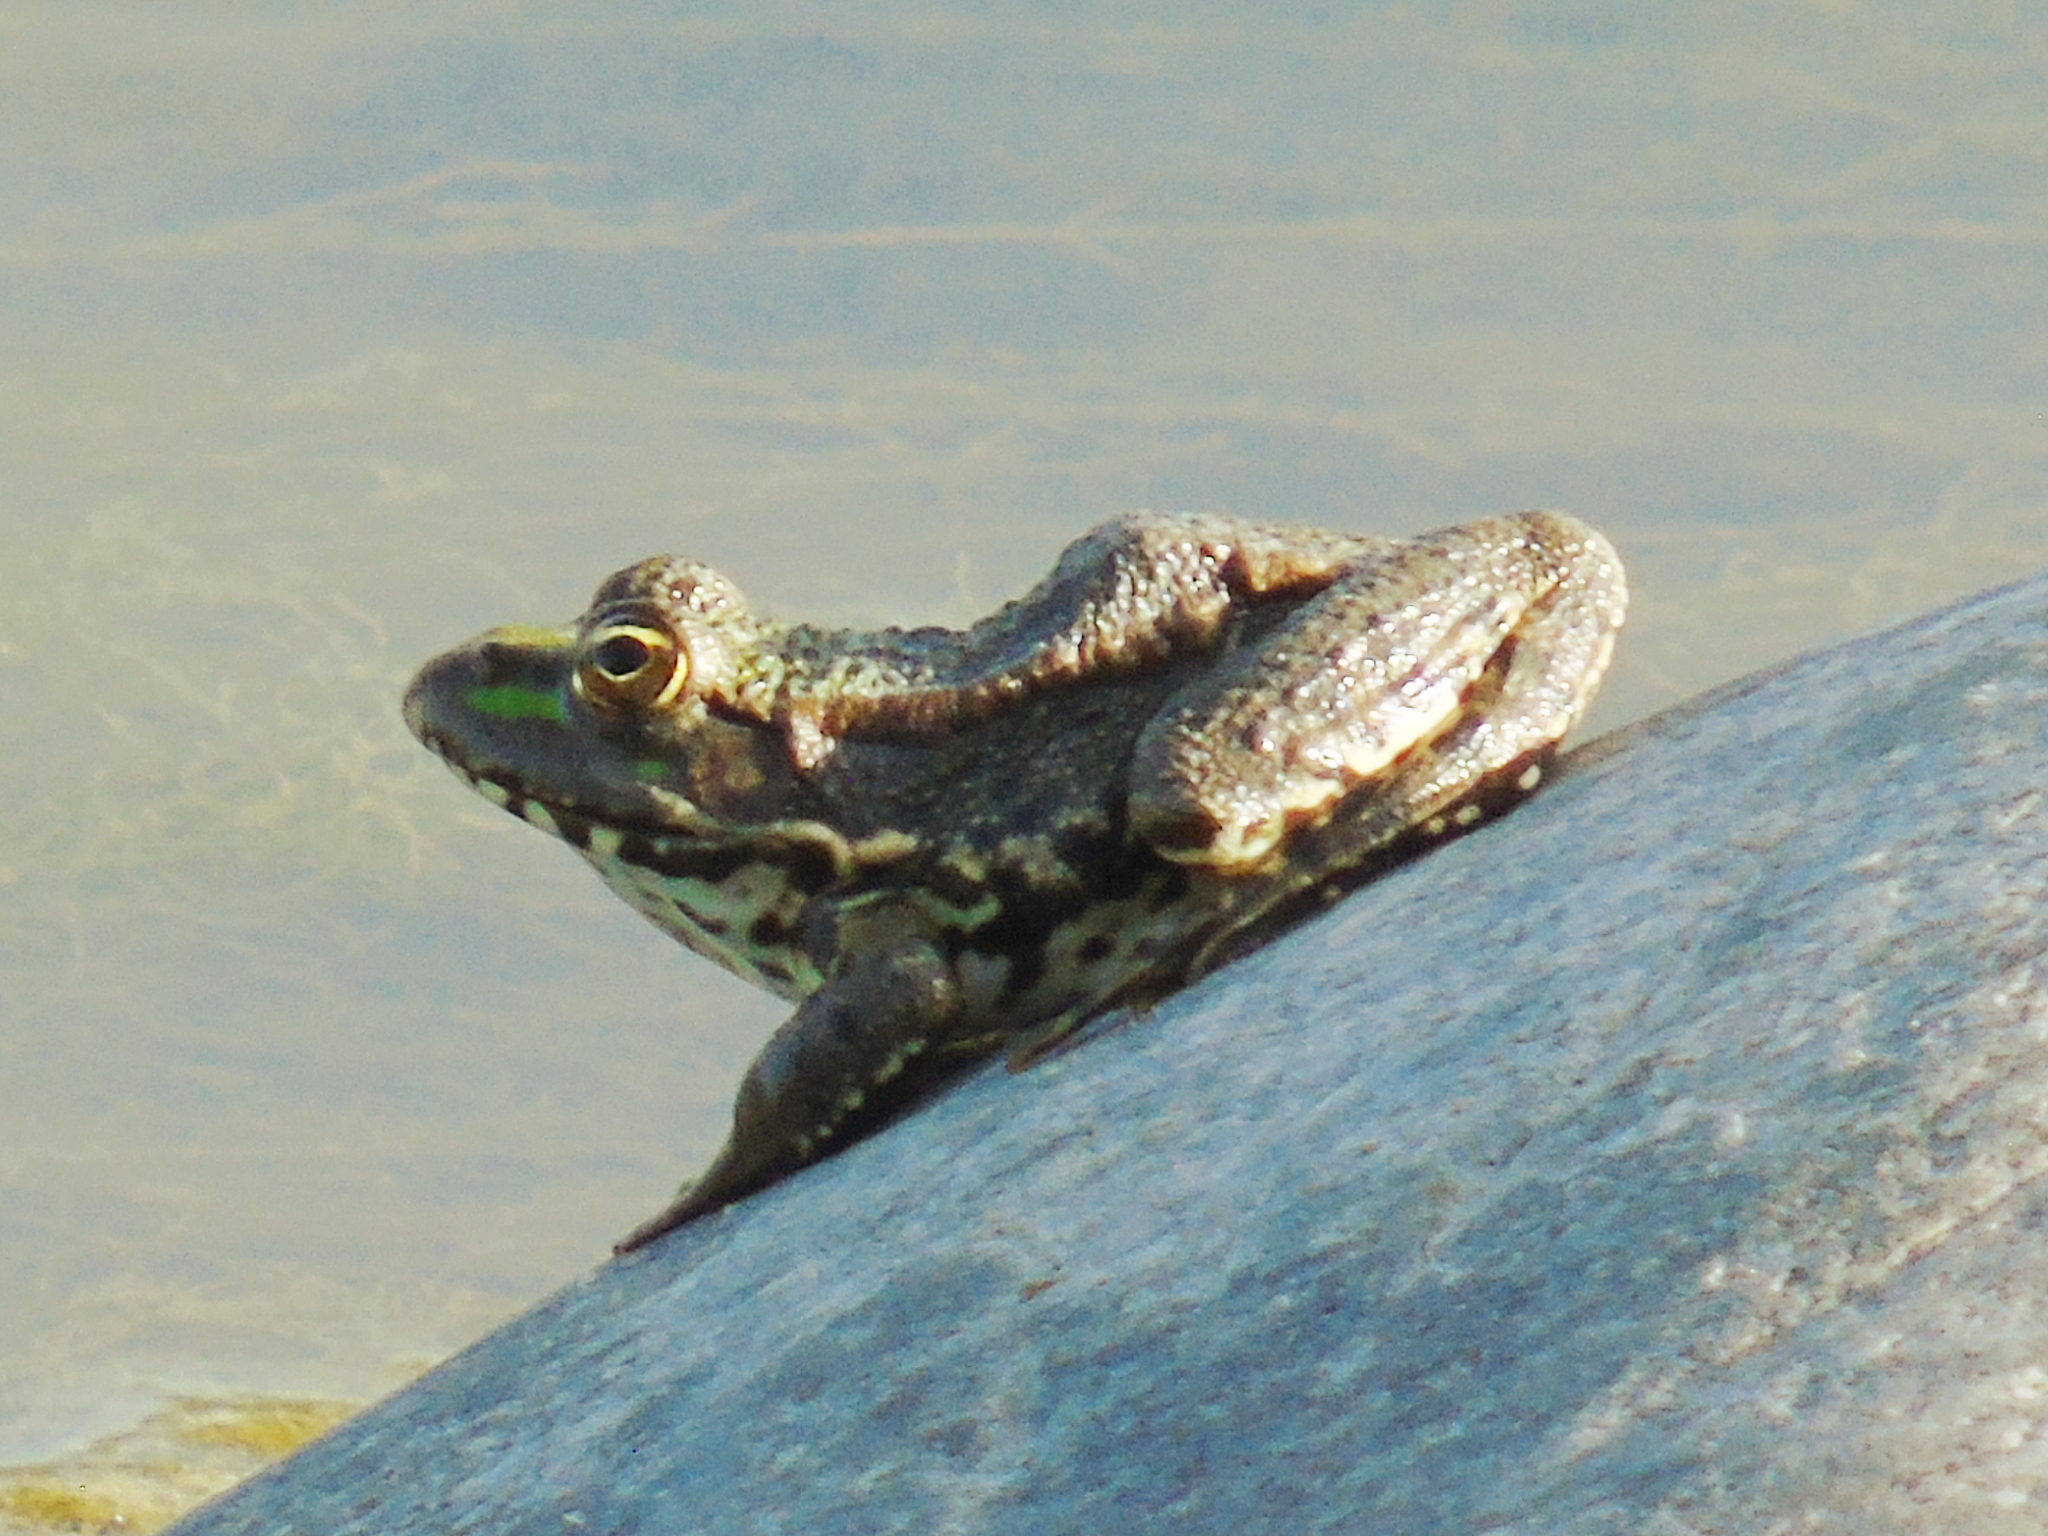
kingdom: Animalia
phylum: Chordata
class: Amphibia
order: Anura
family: Ranidae
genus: Pelophylax
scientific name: Pelophylax ridibundus
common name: Marsh frog
